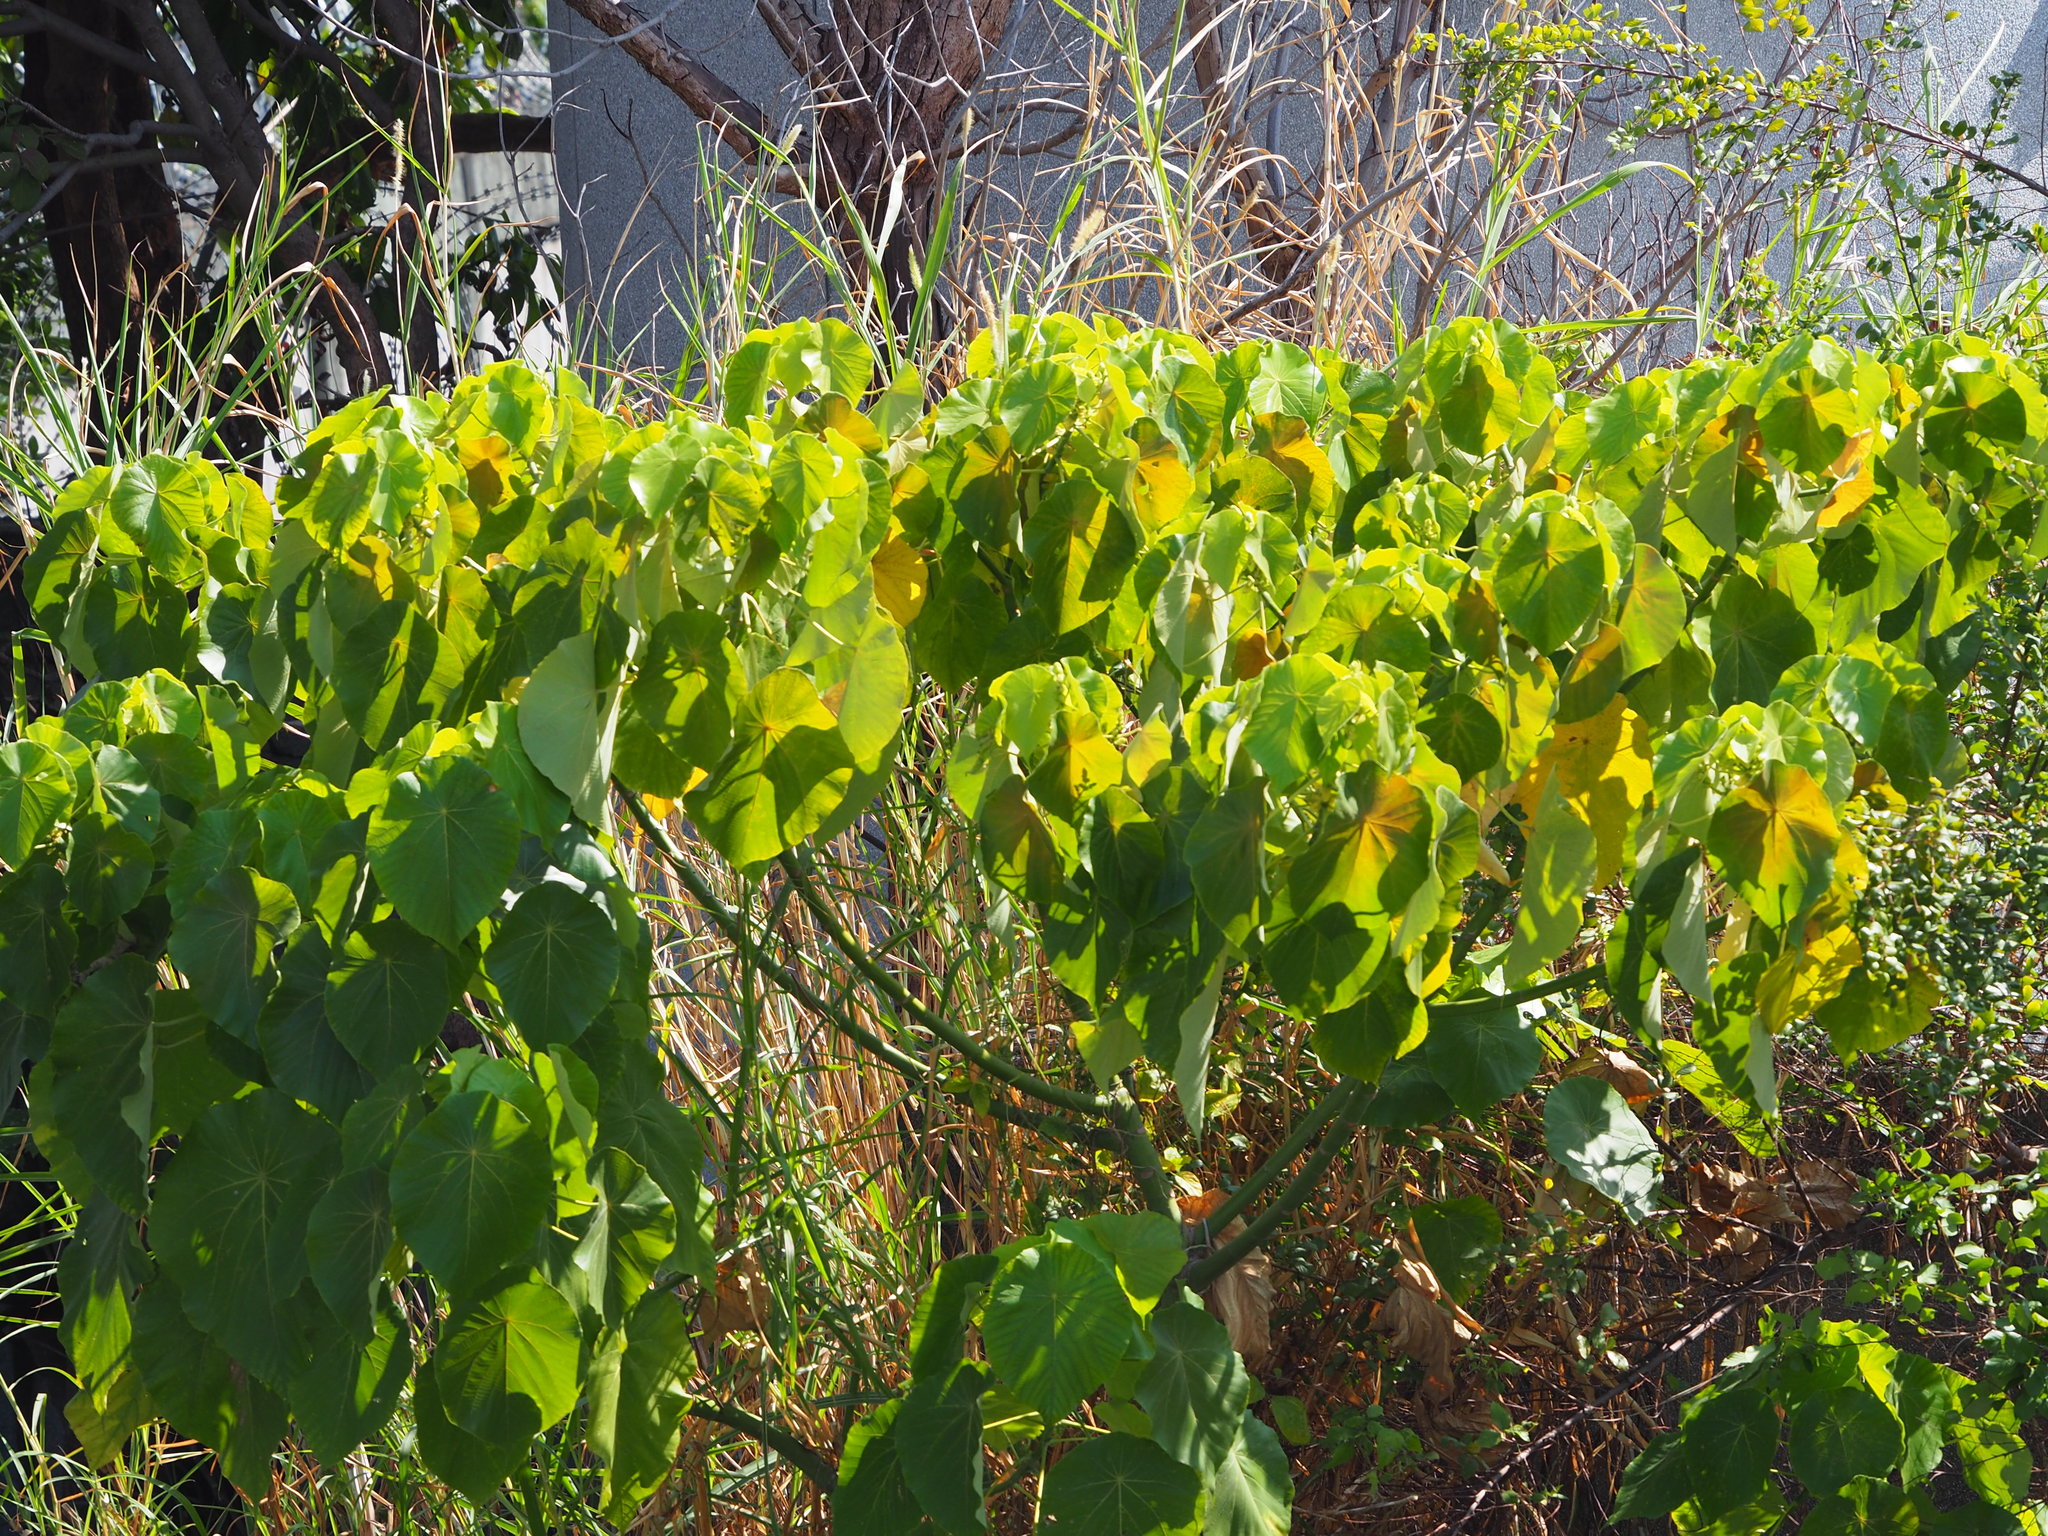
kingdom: Plantae
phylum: Tracheophyta
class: Magnoliopsida
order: Malpighiales
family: Euphorbiaceae
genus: Macaranga
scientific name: Macaranga tanarius
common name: Parasol leaf tree
